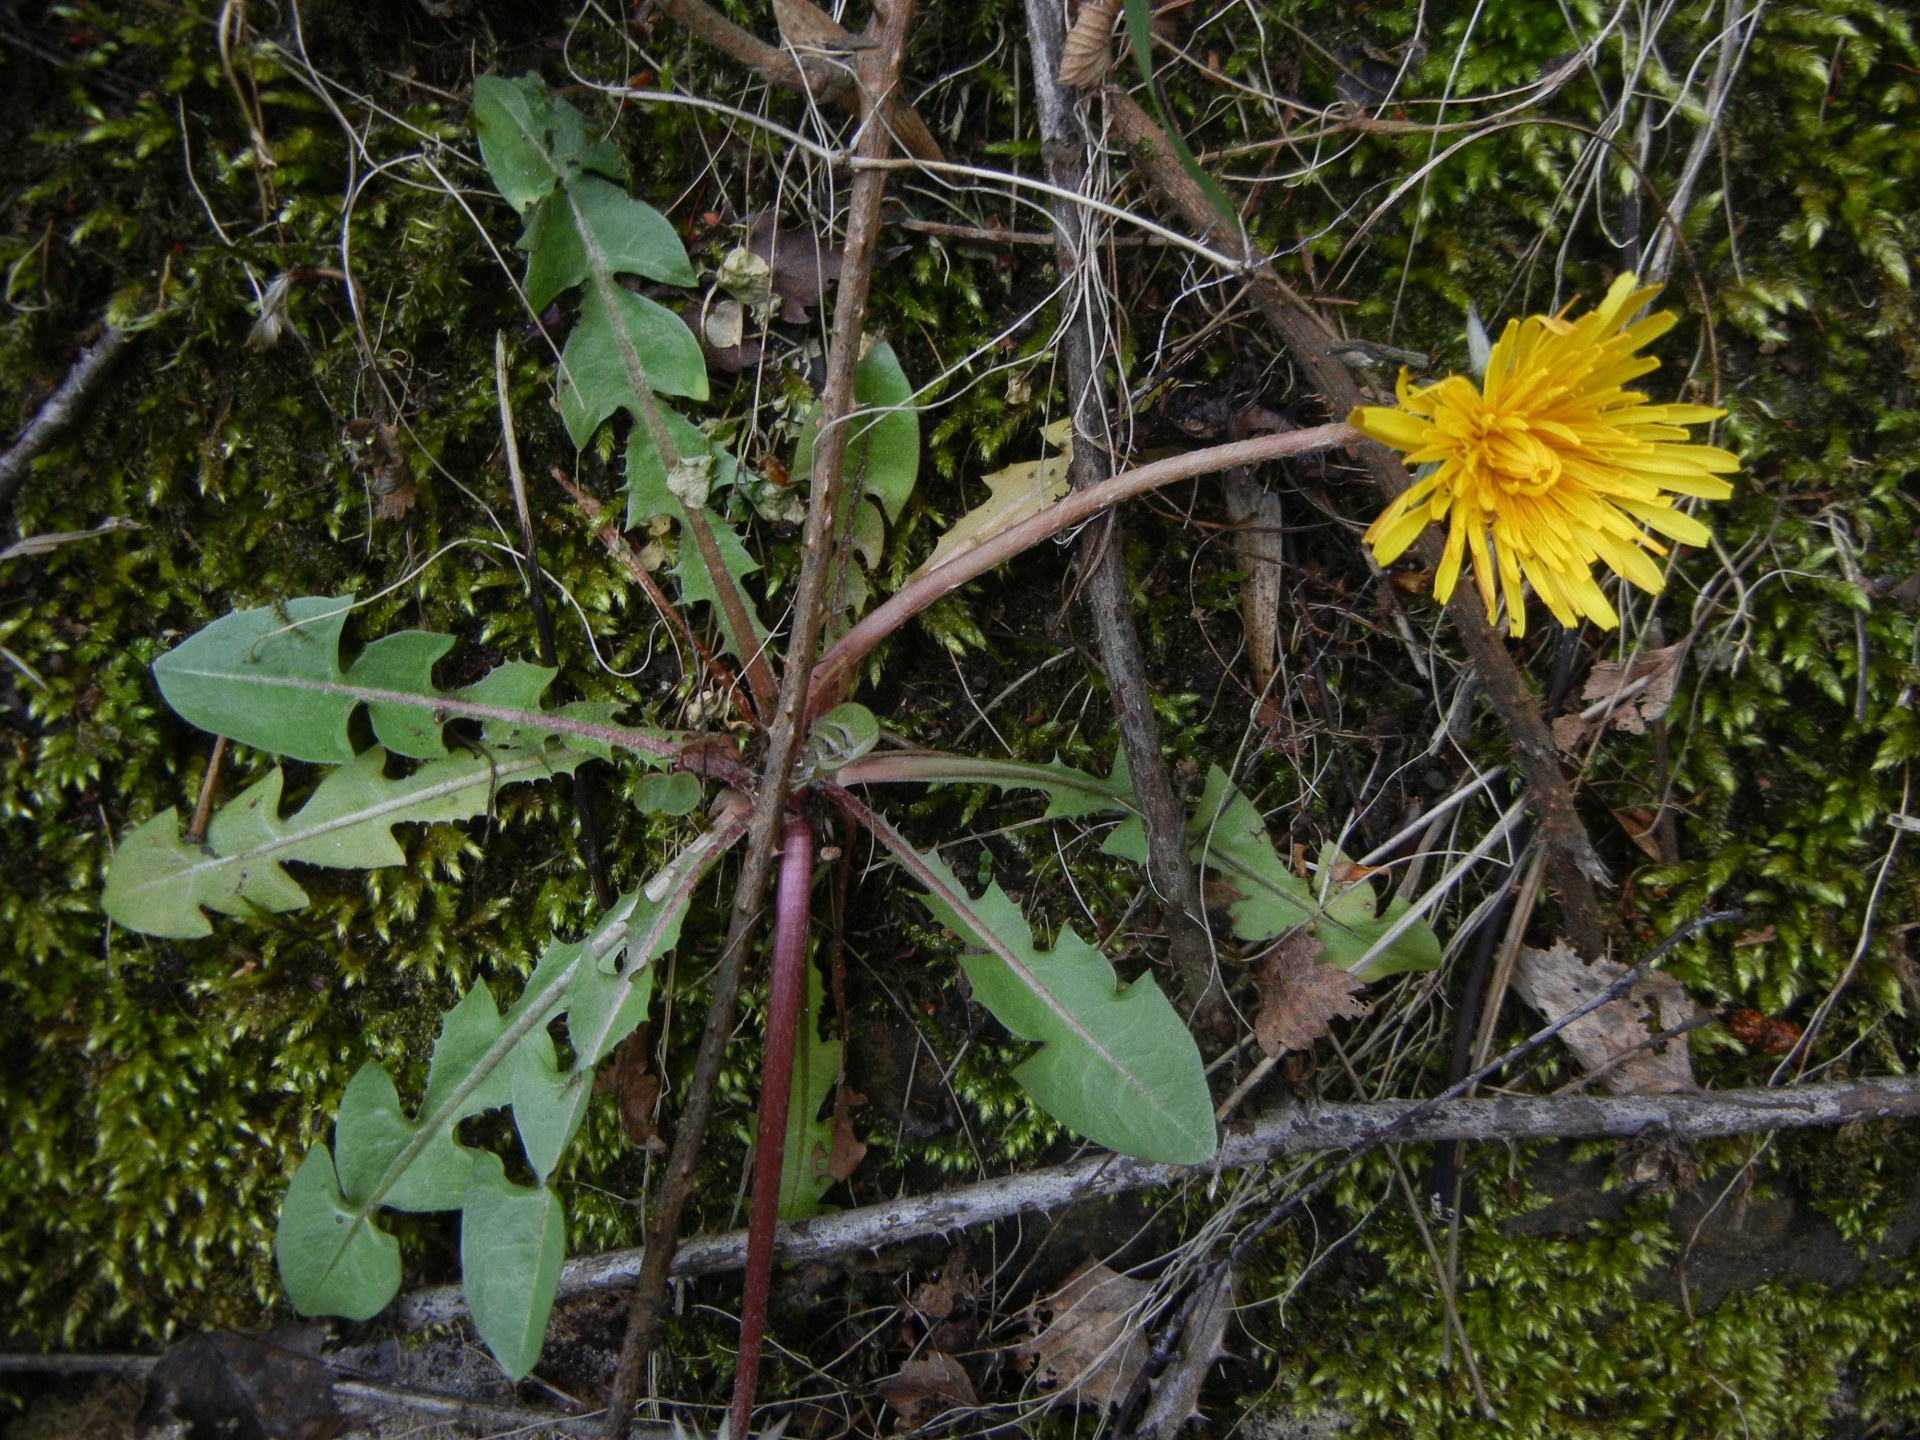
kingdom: Plantae
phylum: Tracheophyta
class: Magnoliopsida
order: Asterales
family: Asteraceae
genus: Taraxacum
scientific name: Taraxacum officinale
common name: Common dandelion
